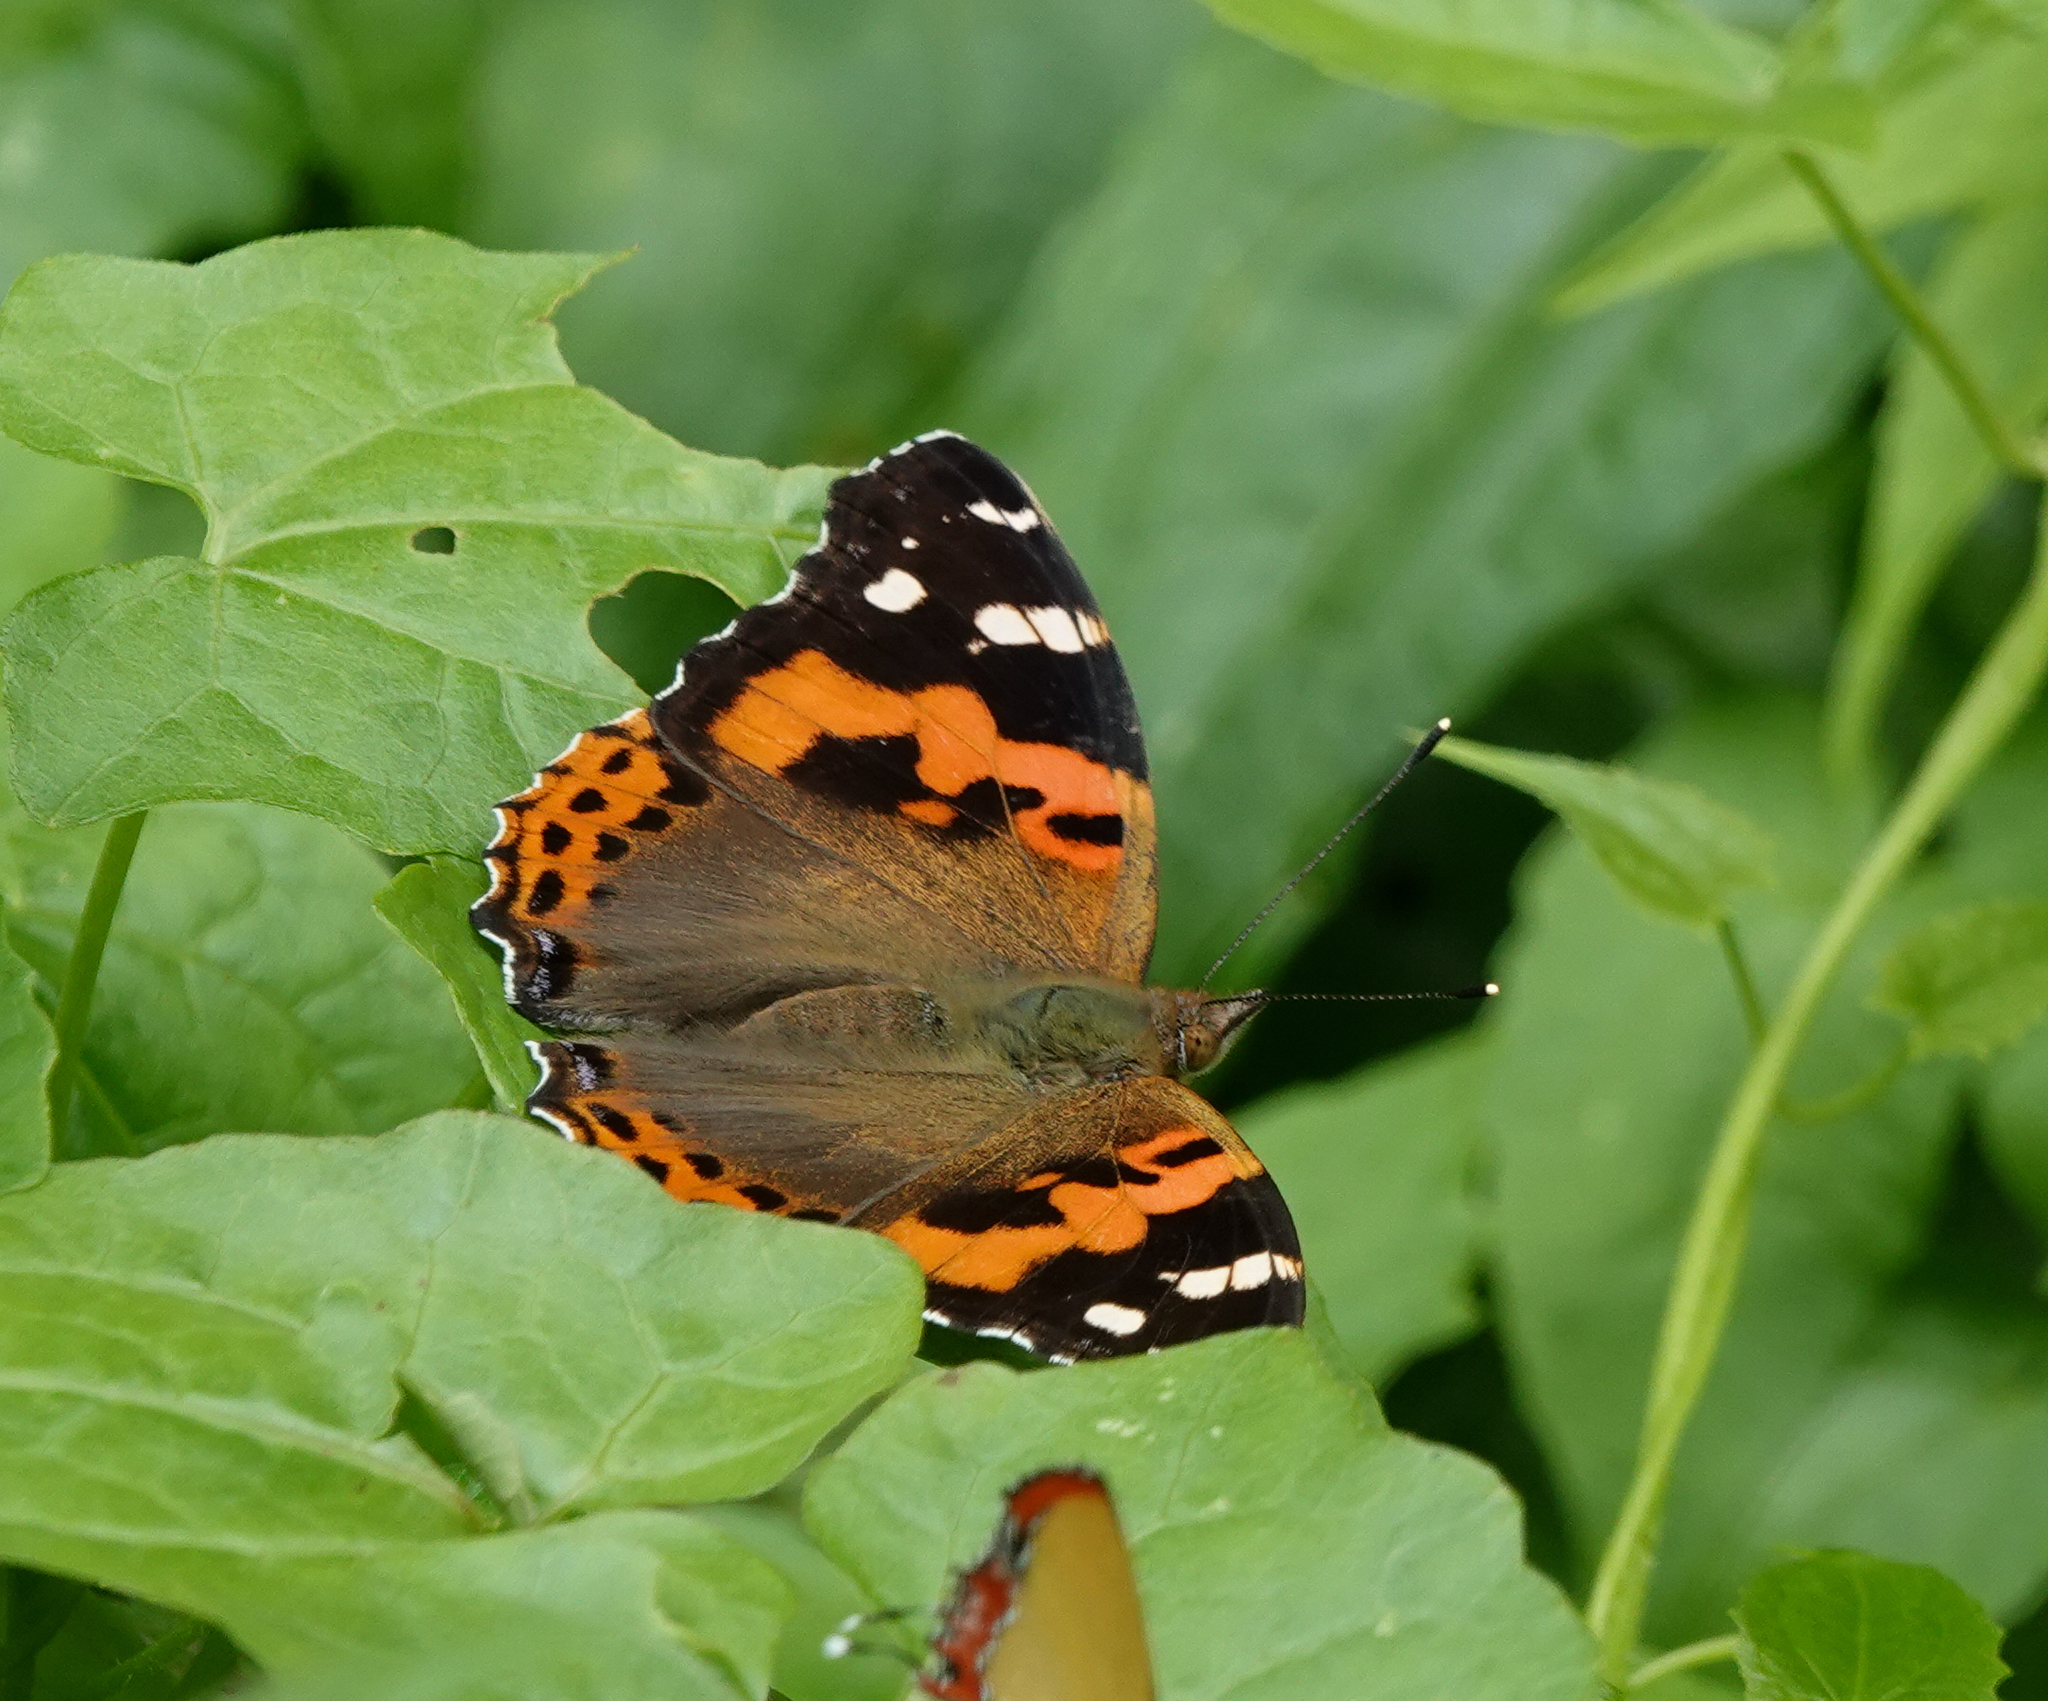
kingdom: Animalia
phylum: Arthropoda
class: Insecta
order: Lepidoptera
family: Nymphalidae
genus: Vanessa
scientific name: Vanessa indica
